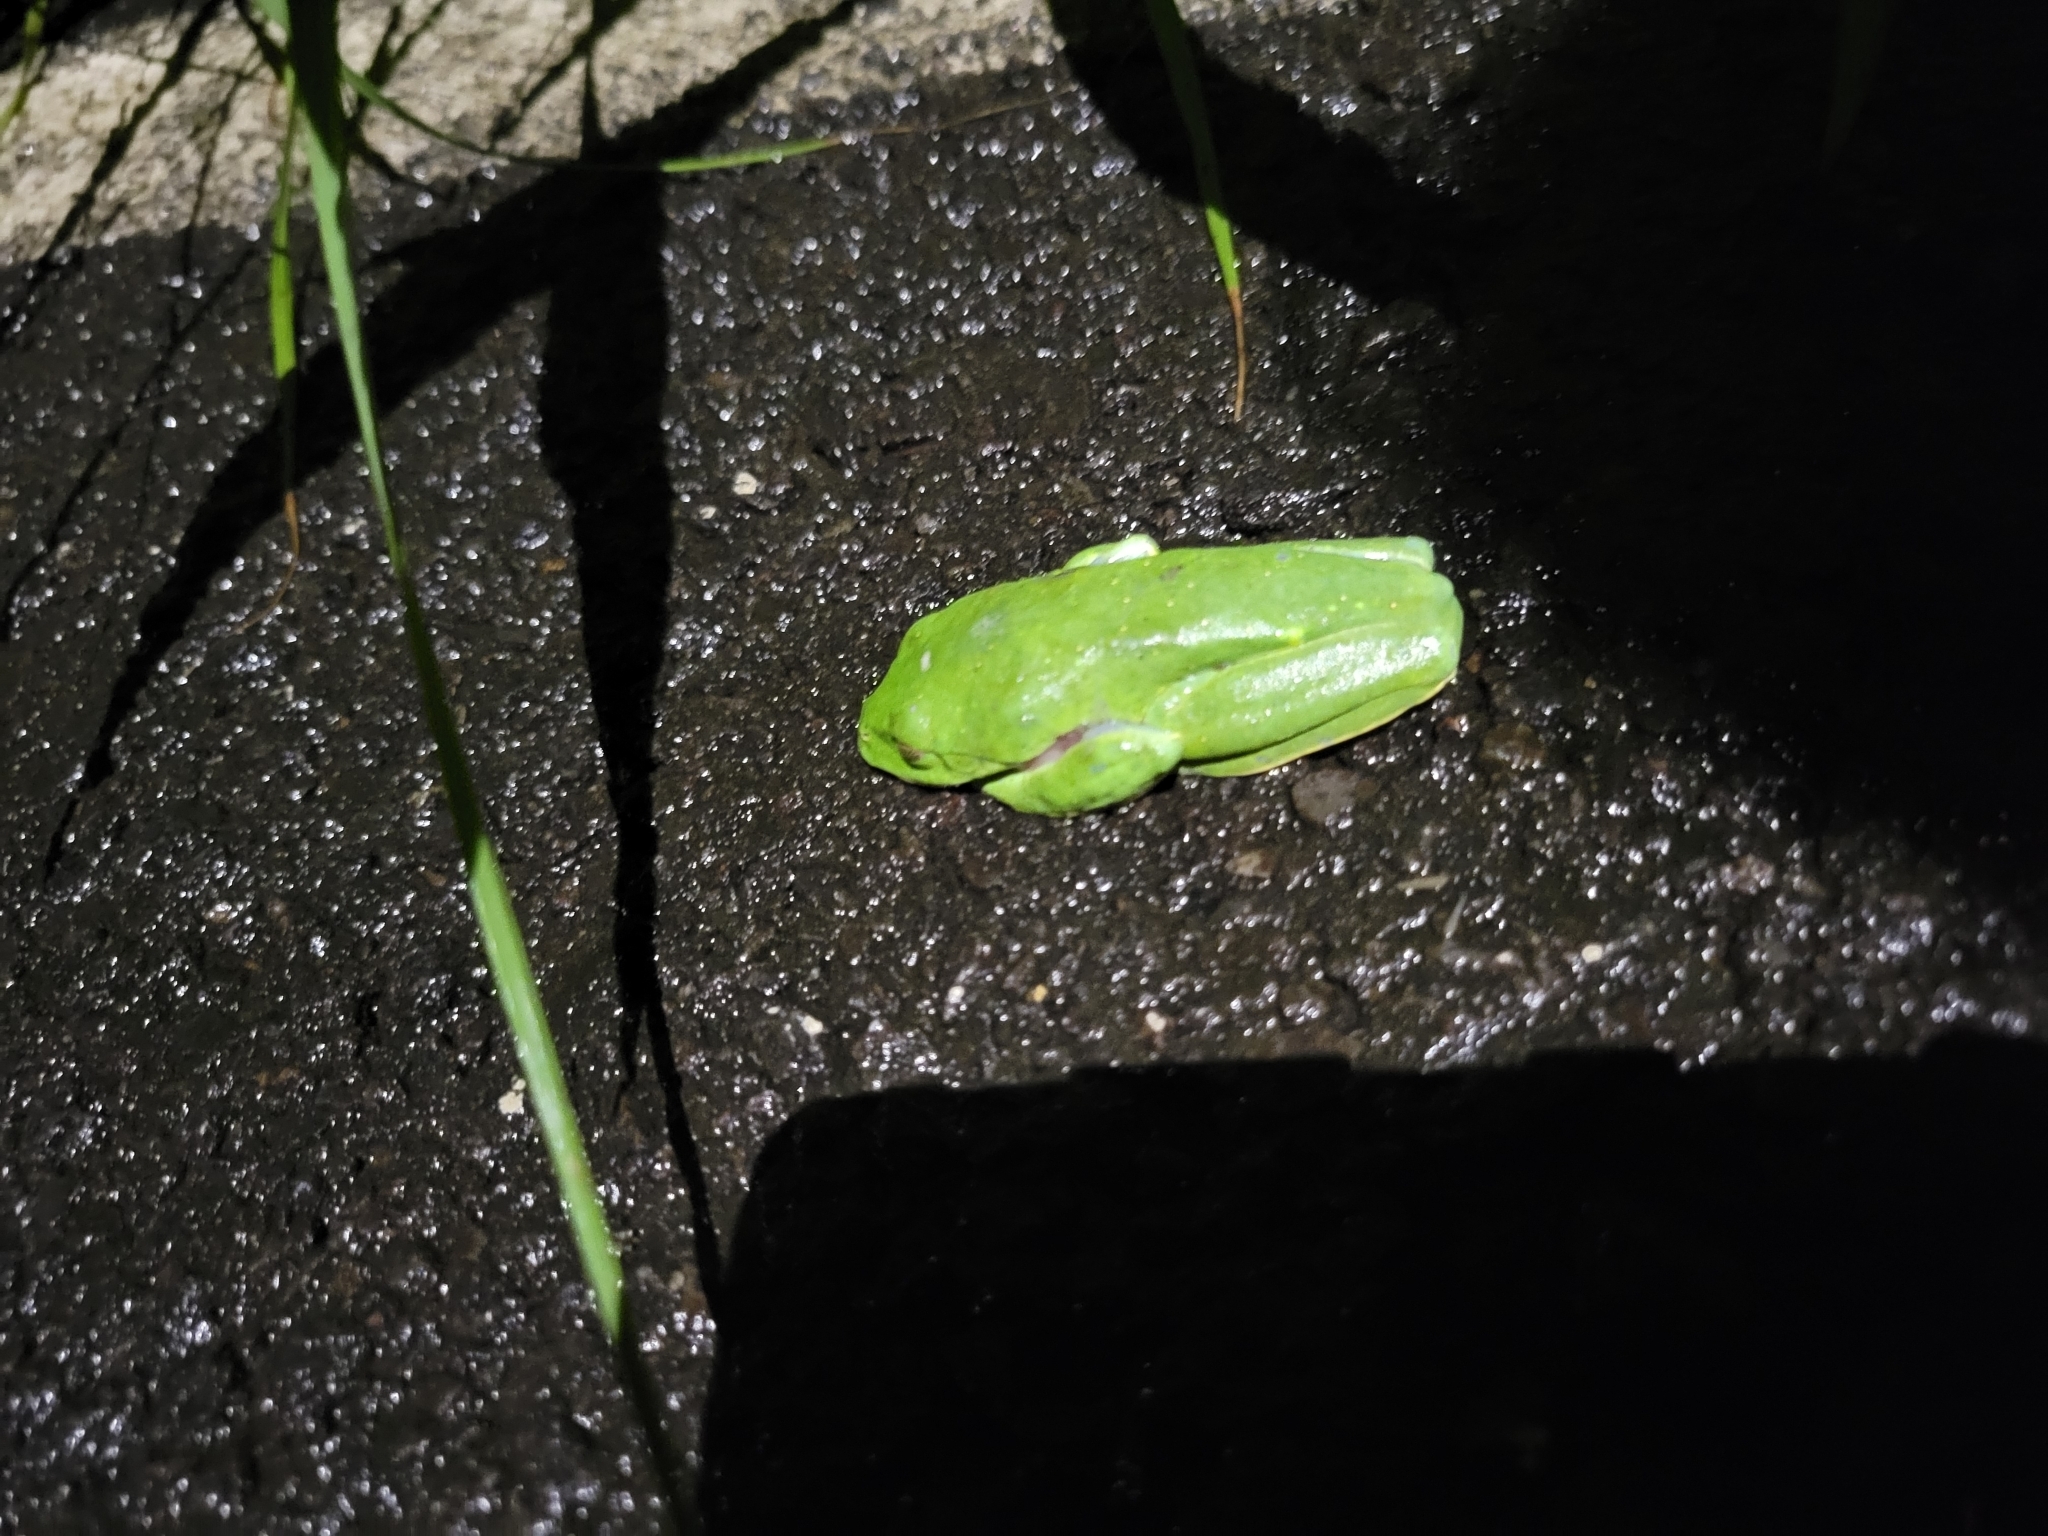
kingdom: Animalia
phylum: Chordata
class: Amphibia
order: Anura
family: Phyllomedusidae
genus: Agalychnis
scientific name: Agalychnis annae
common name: Blue-sided treefrog
